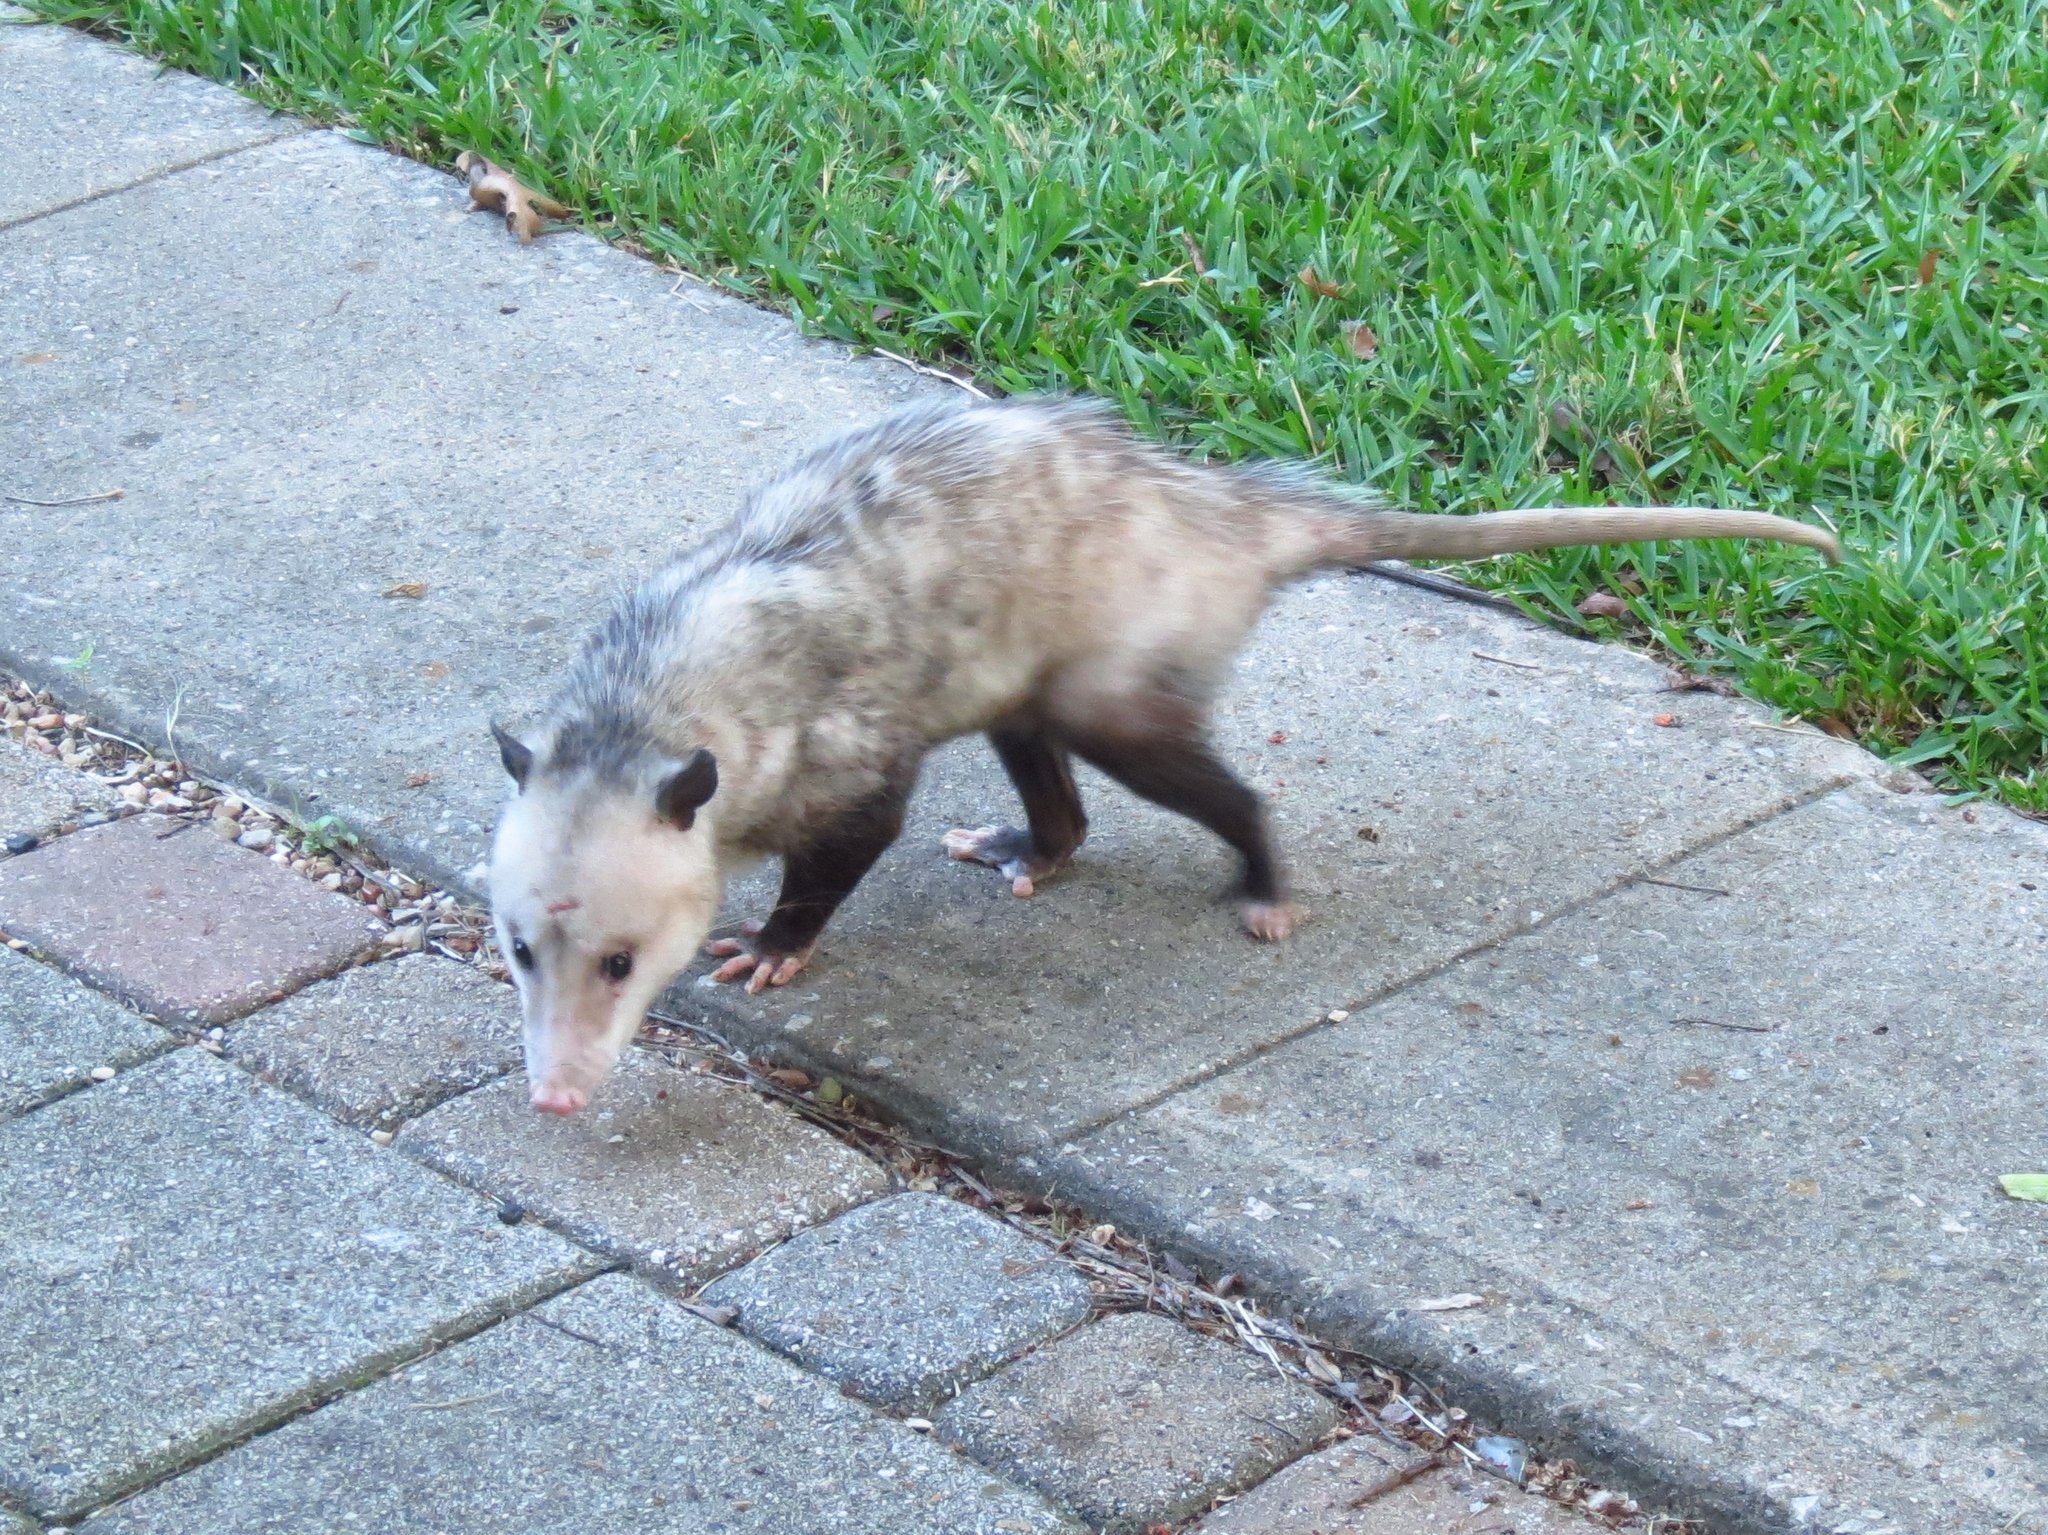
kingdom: Animalia
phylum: Chordata
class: Mammalia
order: Didelphimorphia
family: Didelphidae
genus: Didelphis
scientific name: Didelphis virginiana
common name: Virginia opossum
